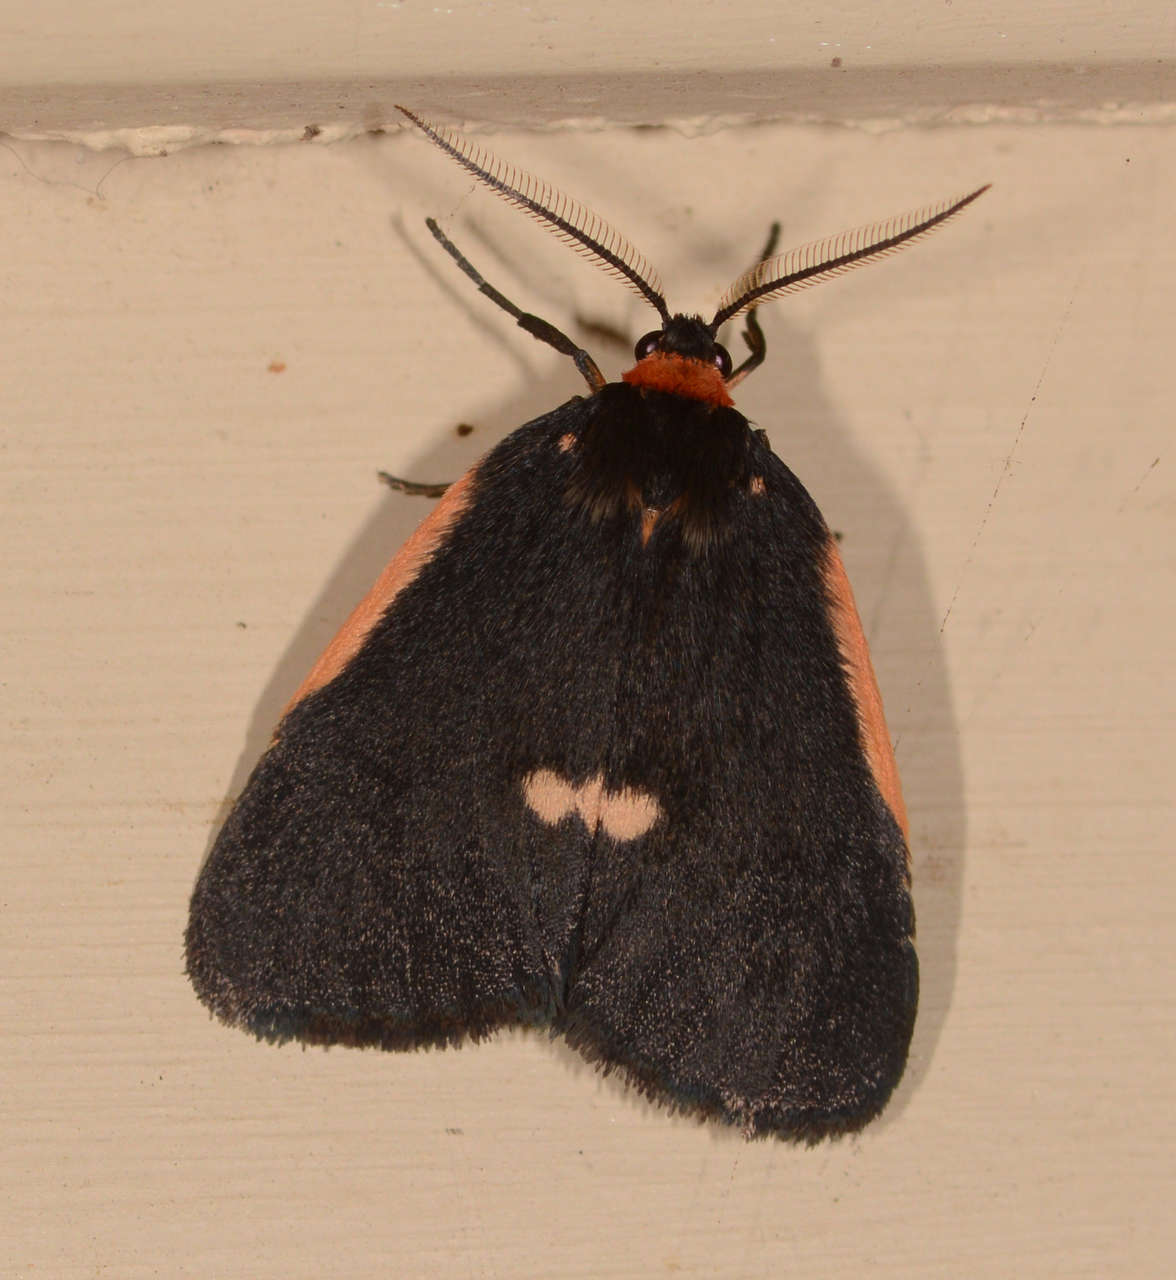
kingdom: Animalia
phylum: Arthropoda
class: Insecta
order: Lepidoptera
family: Erebidae
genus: Castulo
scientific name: Castulo doubledayi
